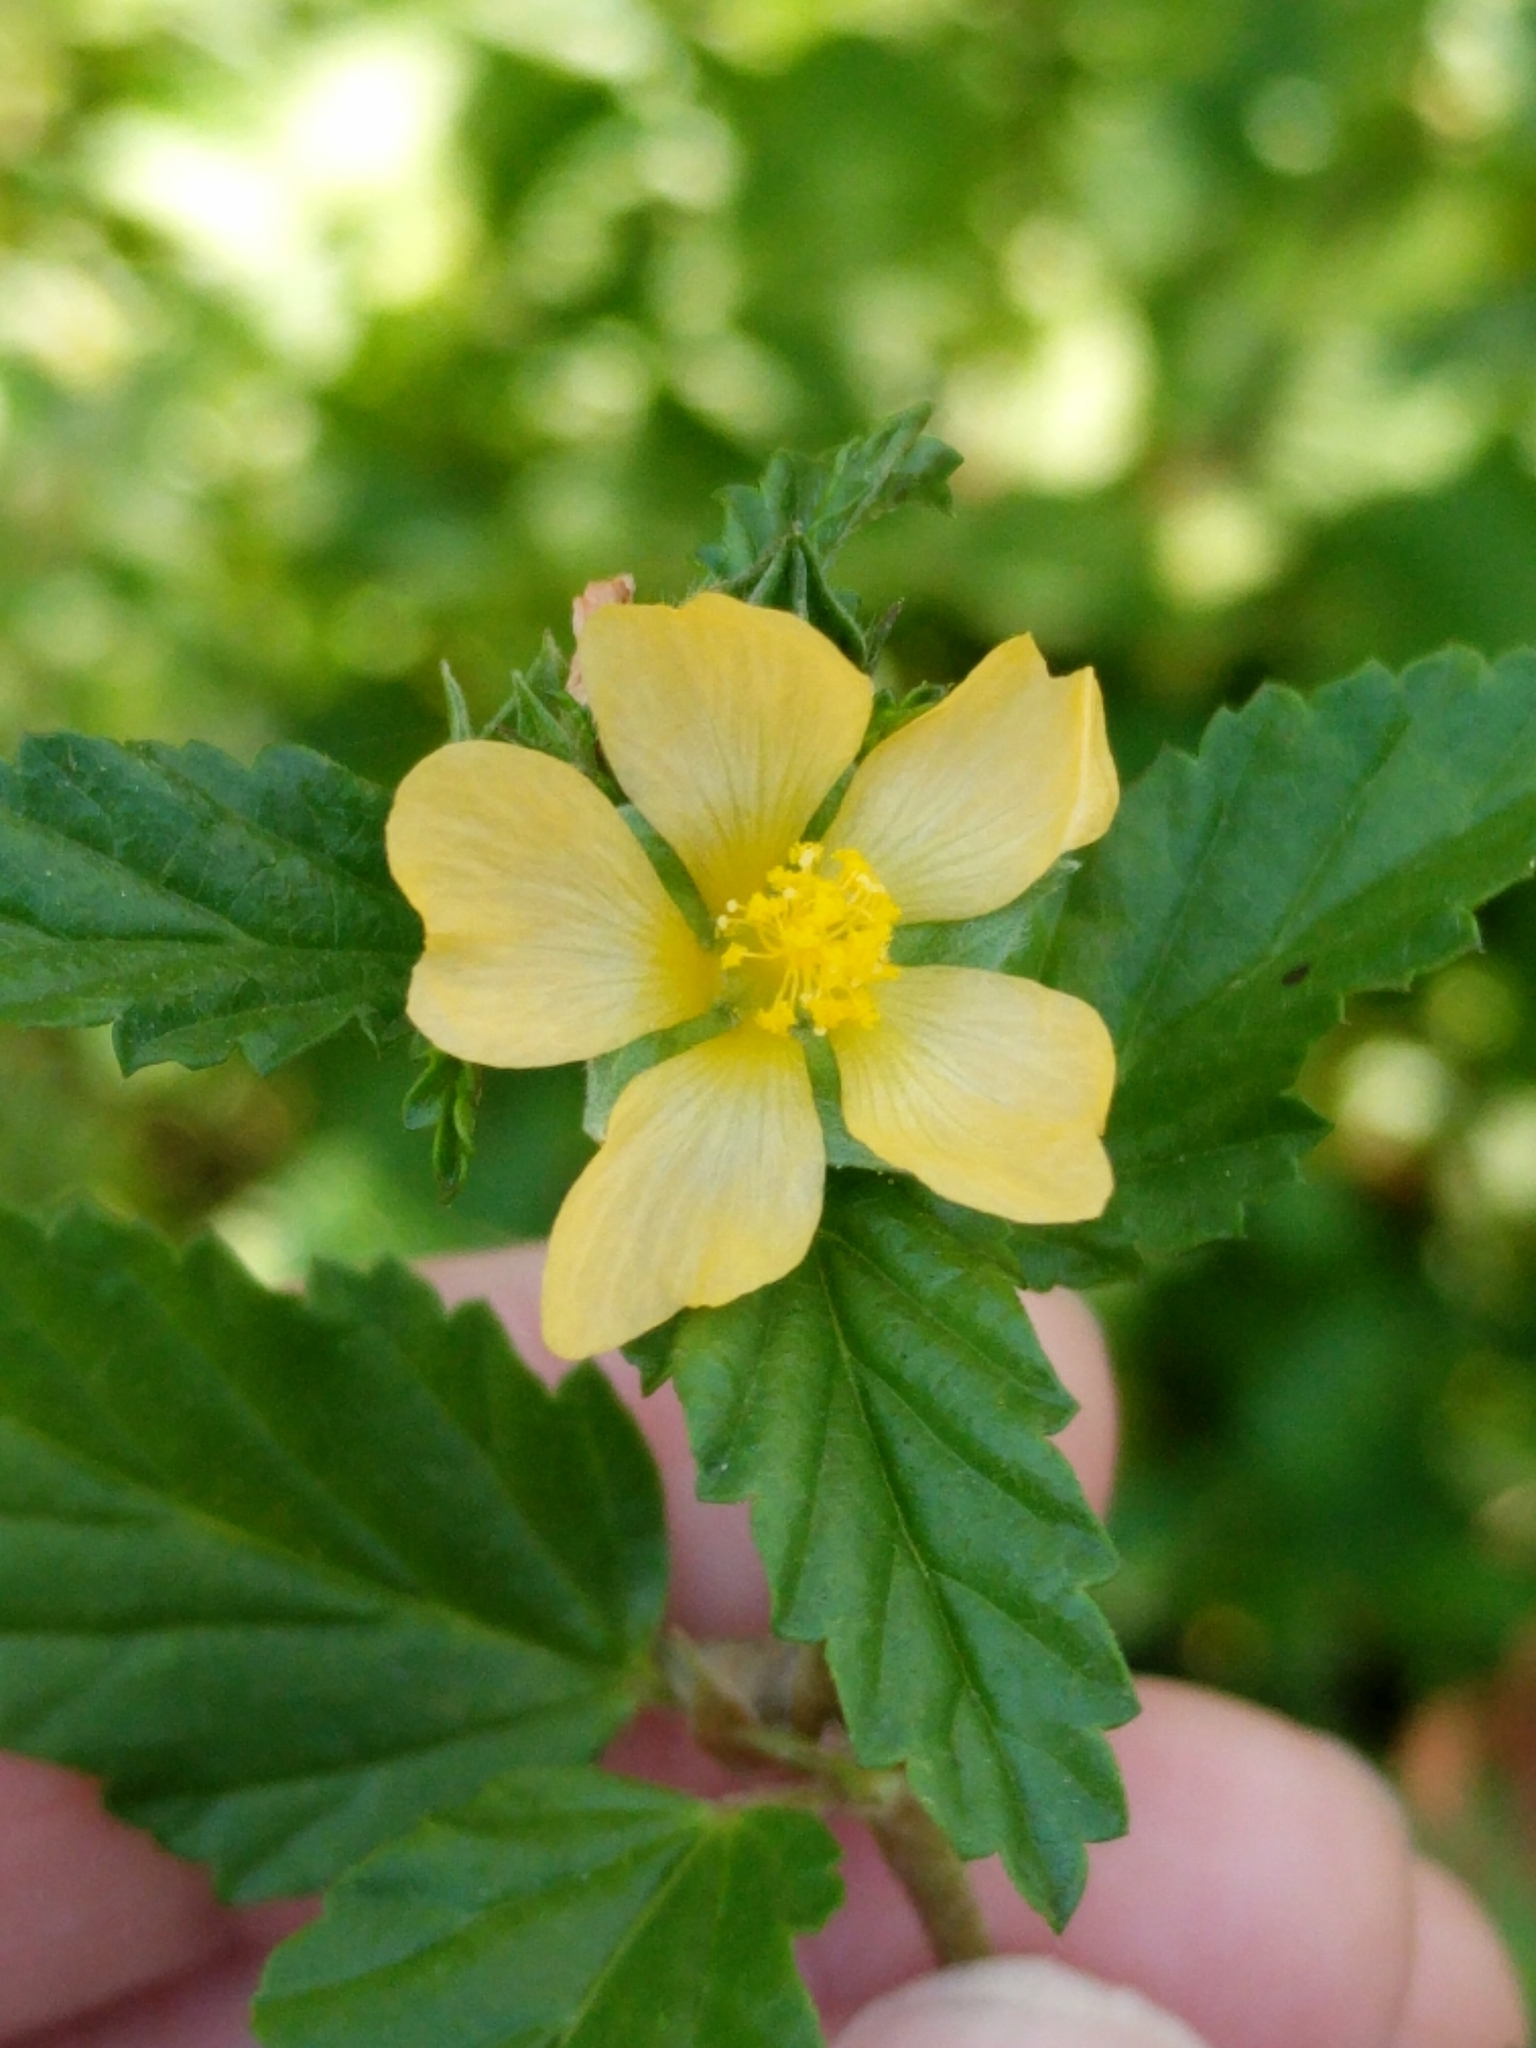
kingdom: Plantae
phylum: Tracheophyta
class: Magnoliopsida
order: Malvales
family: Malvaceae
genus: Malvastrum
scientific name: Malvastrum coromandelianum
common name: Threelobe false mallow
